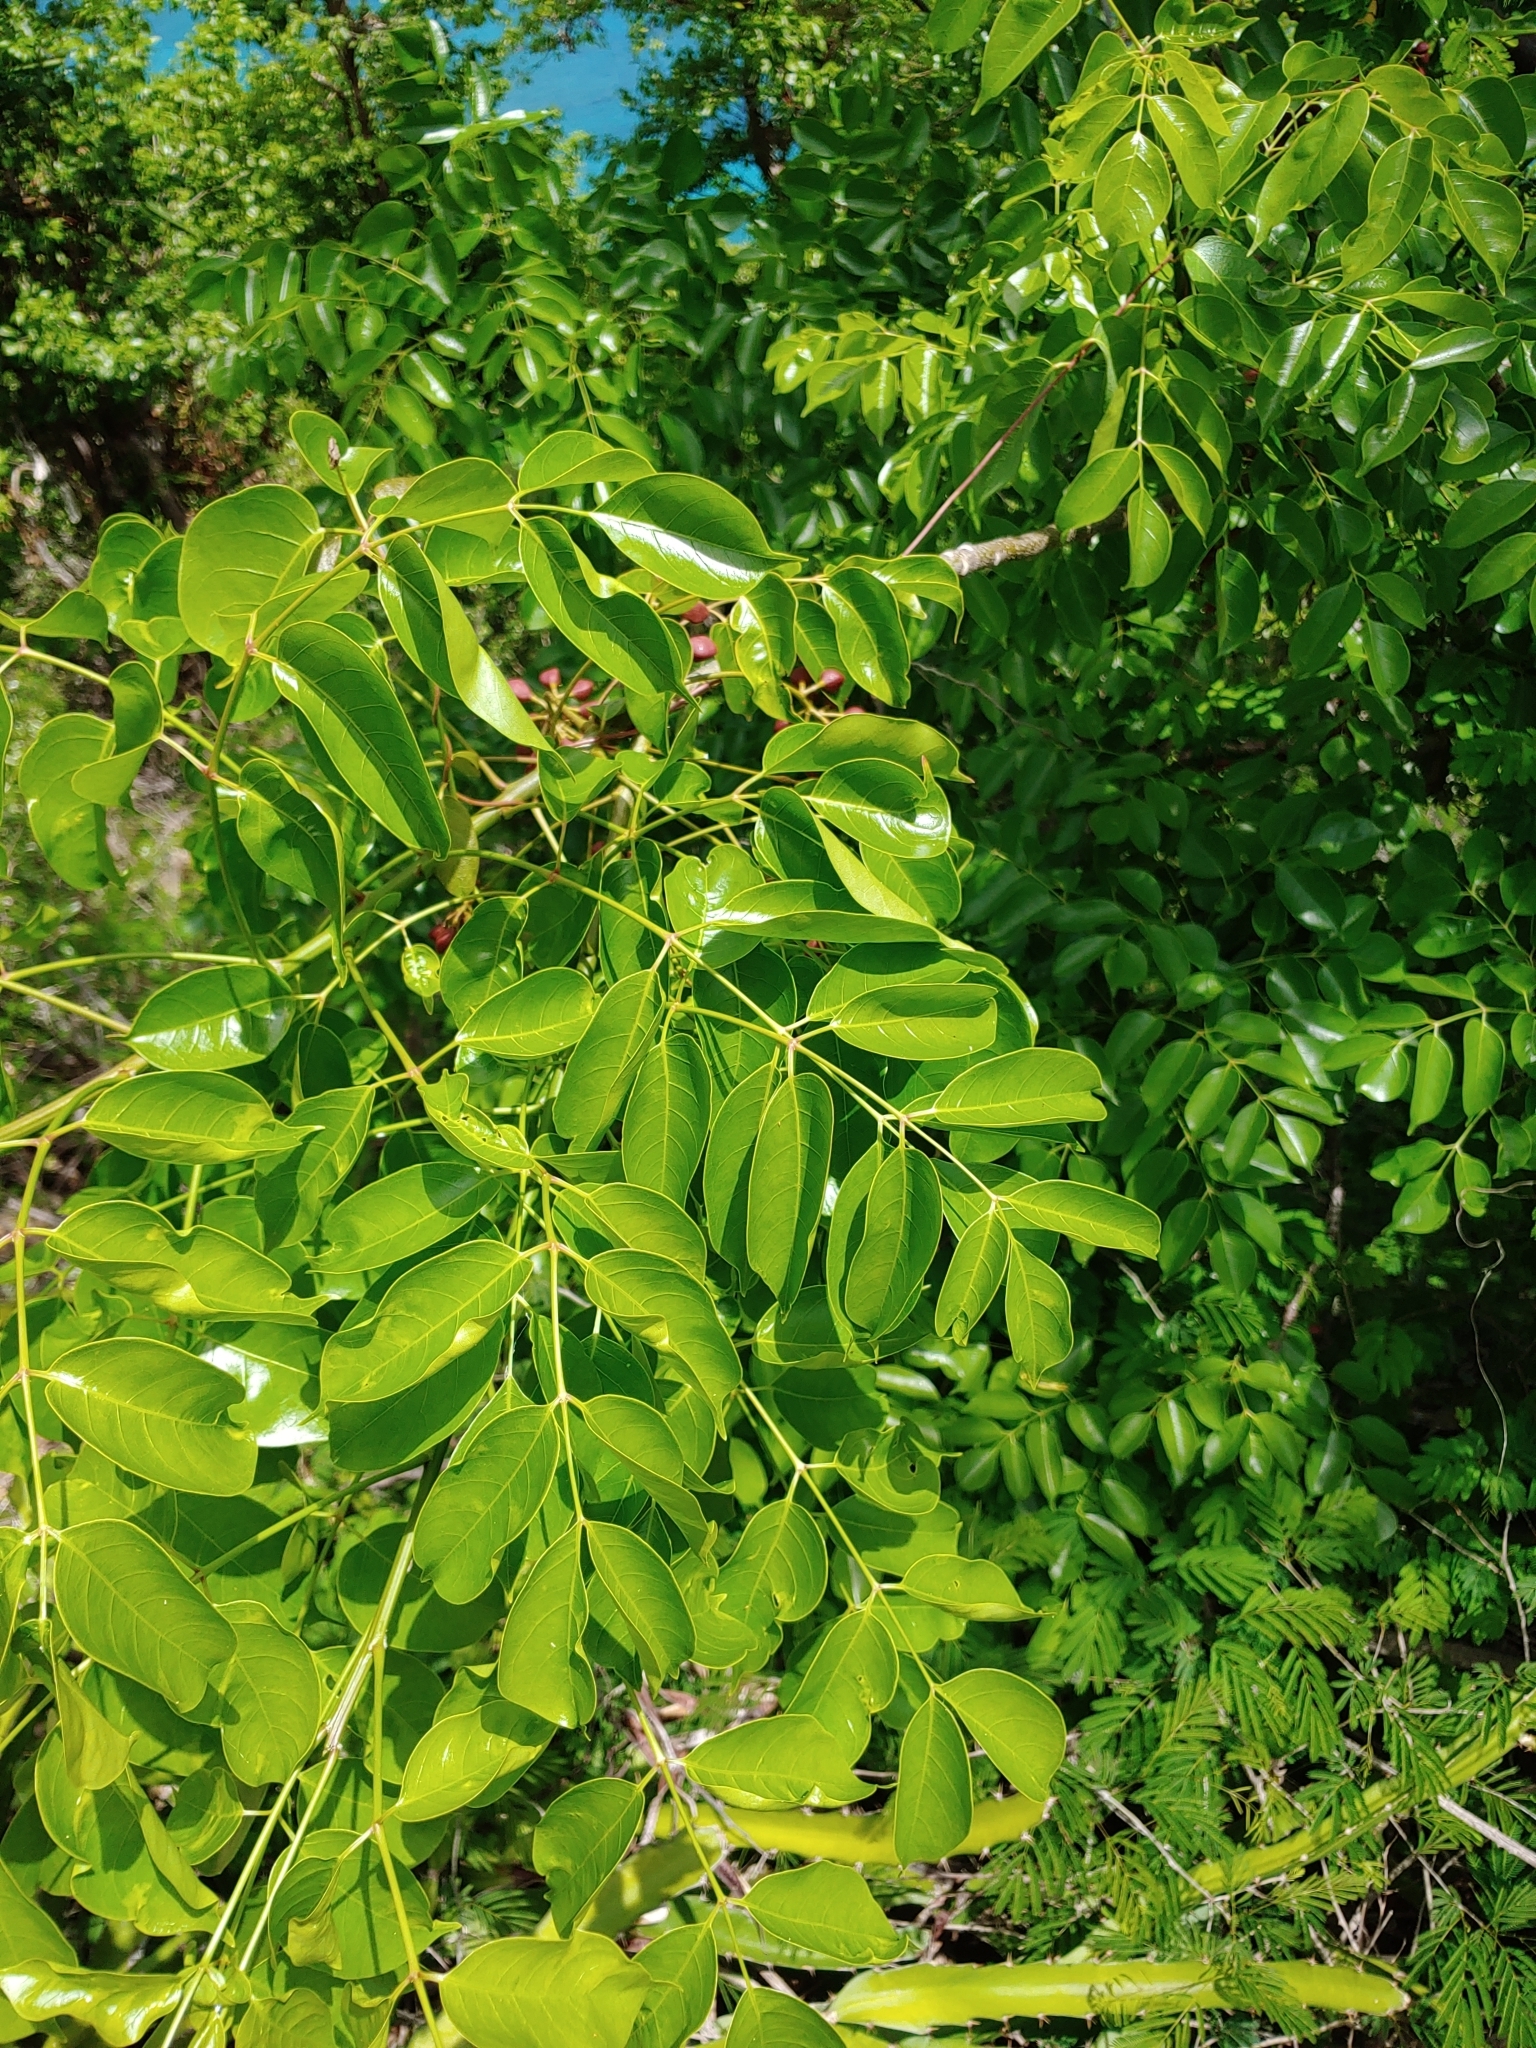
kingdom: Plantae
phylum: Tracheophyta
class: Magnoliopsida
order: Sapindales
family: Burseraceae
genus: Bursera
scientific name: Bursera simaruba
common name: Turpentine tree
